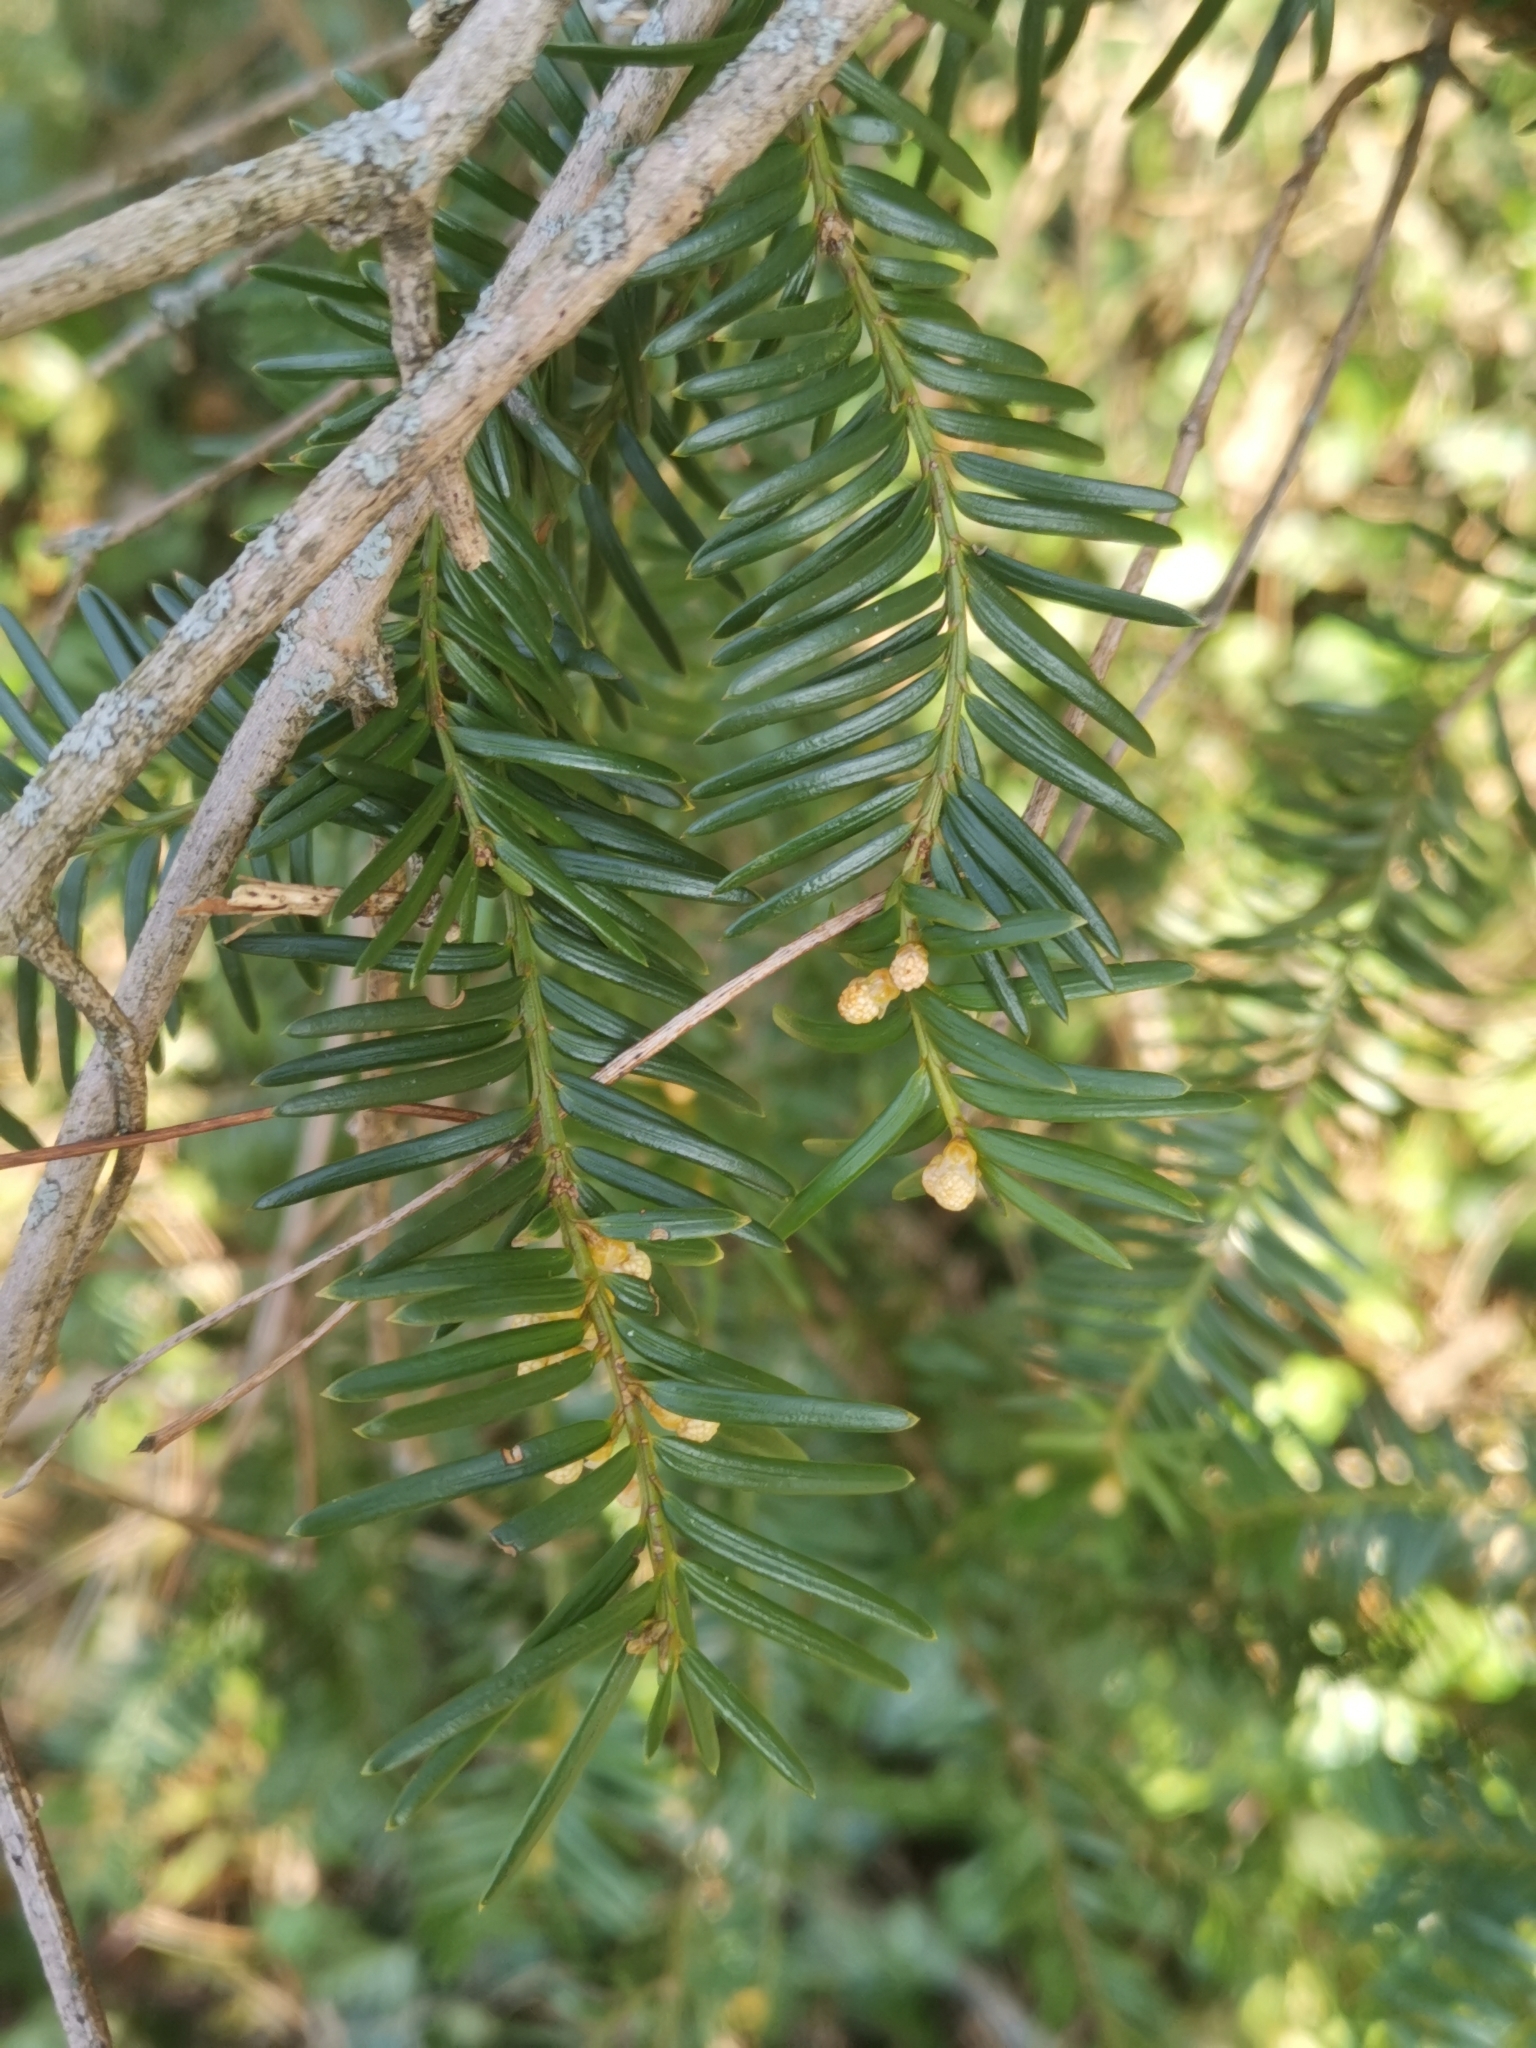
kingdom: Plantae
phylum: Tracheophyta
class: Pinopsida
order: Pinales
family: Taxaceae
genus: Taxus
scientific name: Taxus baccata
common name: Yew
